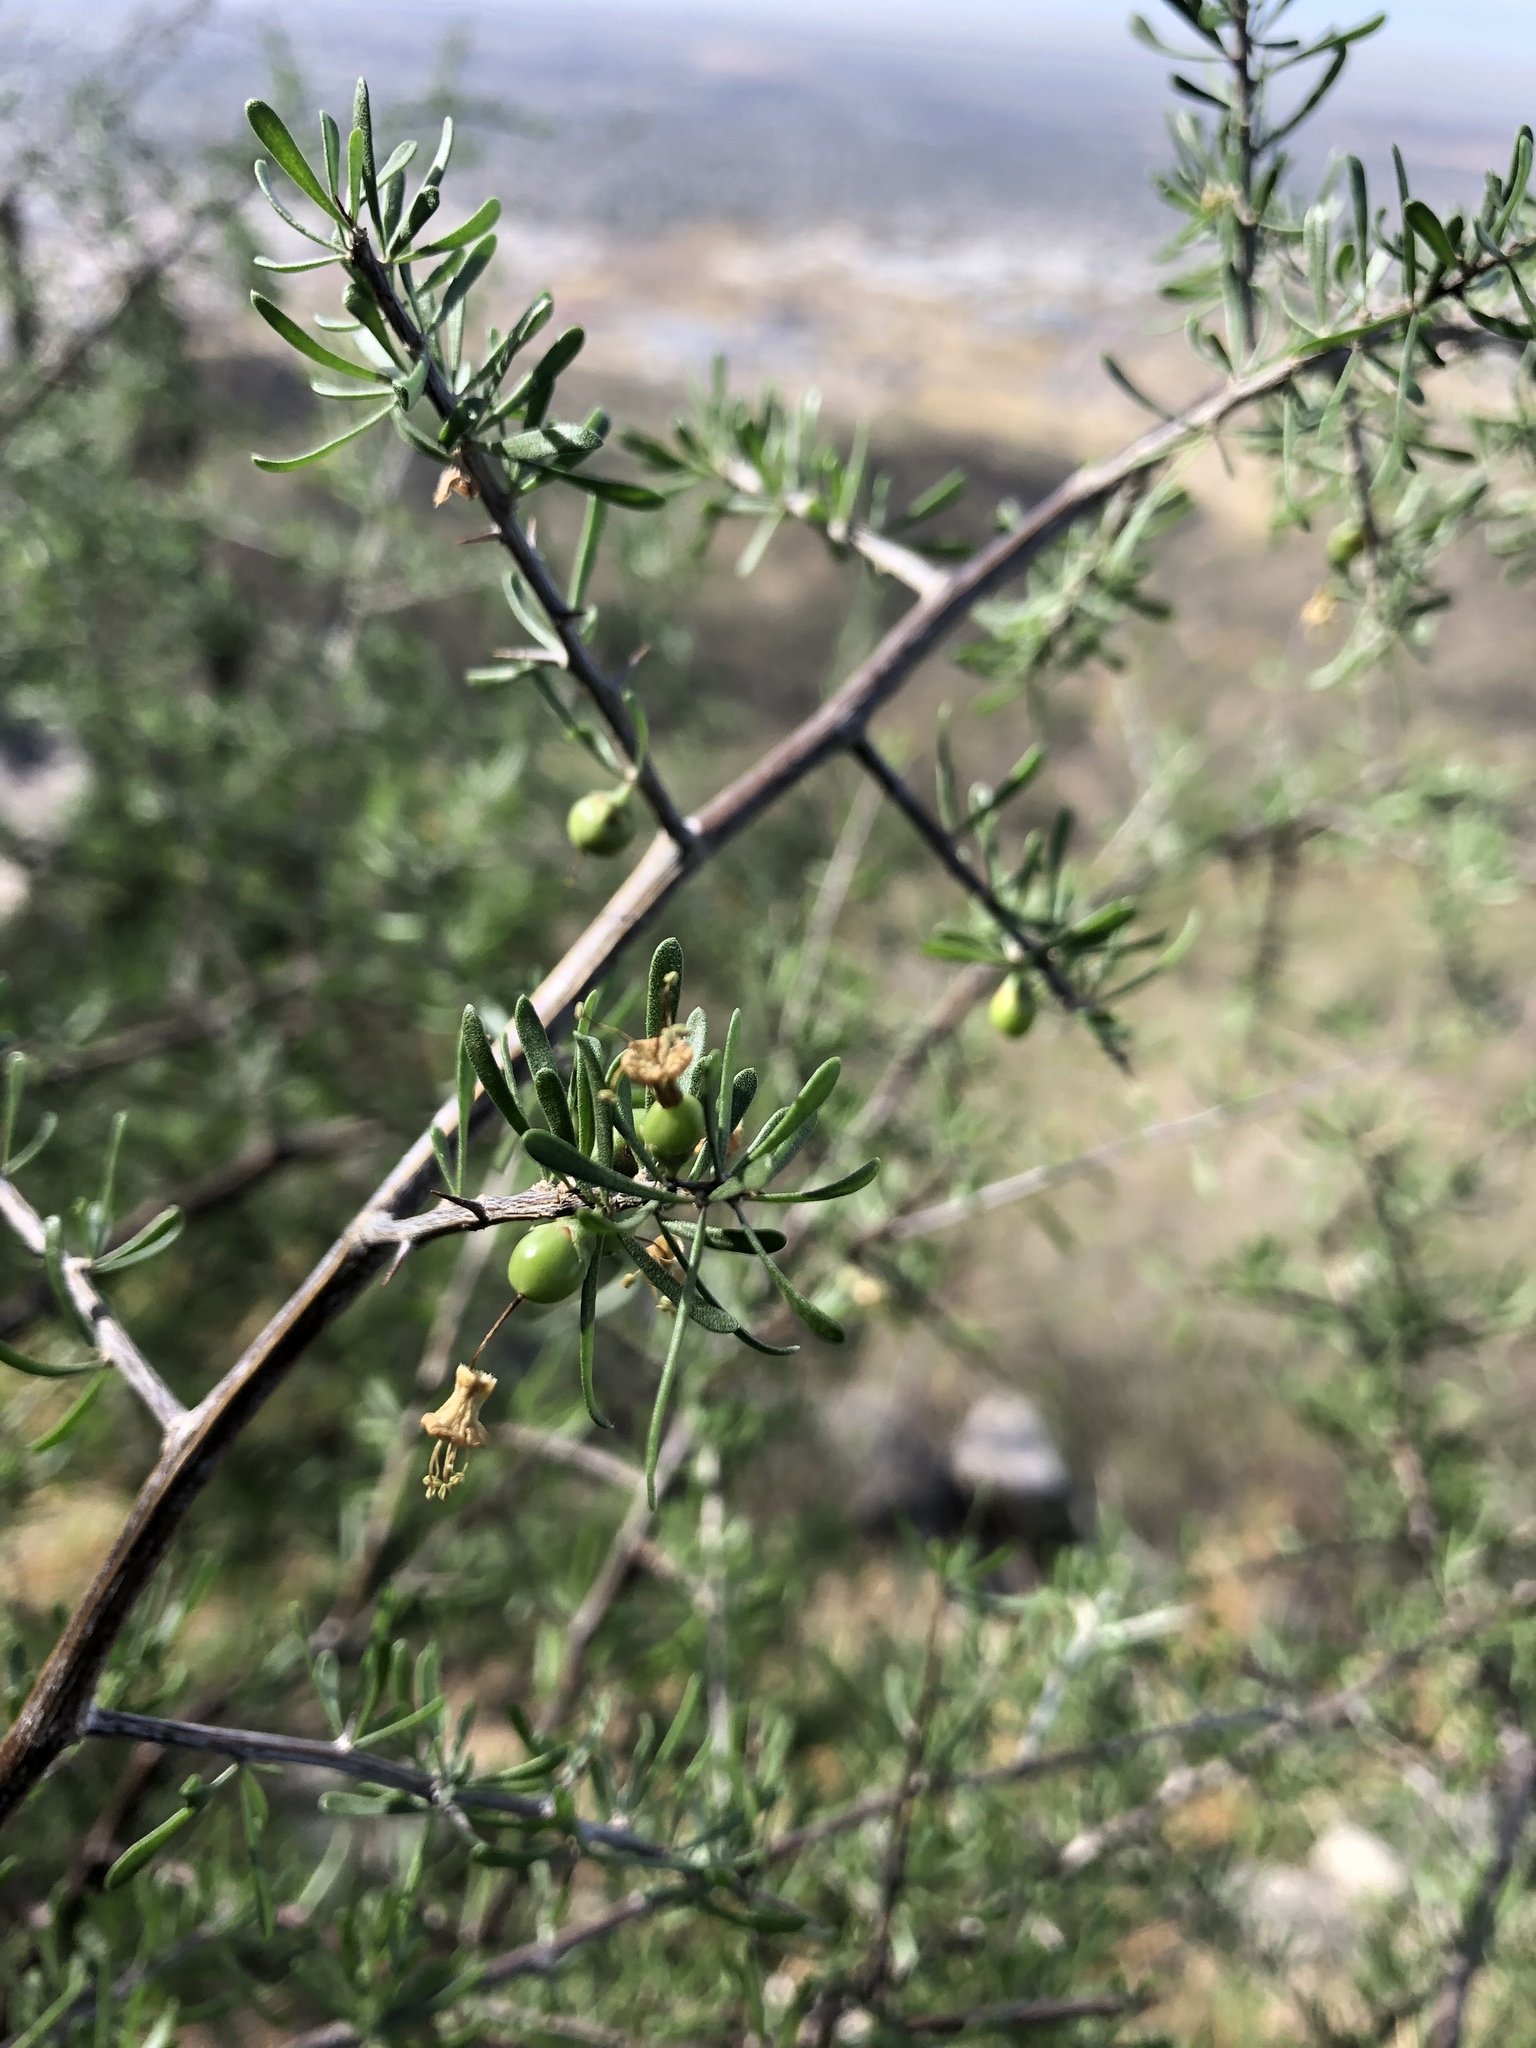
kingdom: Plantae
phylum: Tracheophyta
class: Magnoliopsida
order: Solanales
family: Solanaceae
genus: Lycium
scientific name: Lycium berlandieri
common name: Berlandier wolfberry
